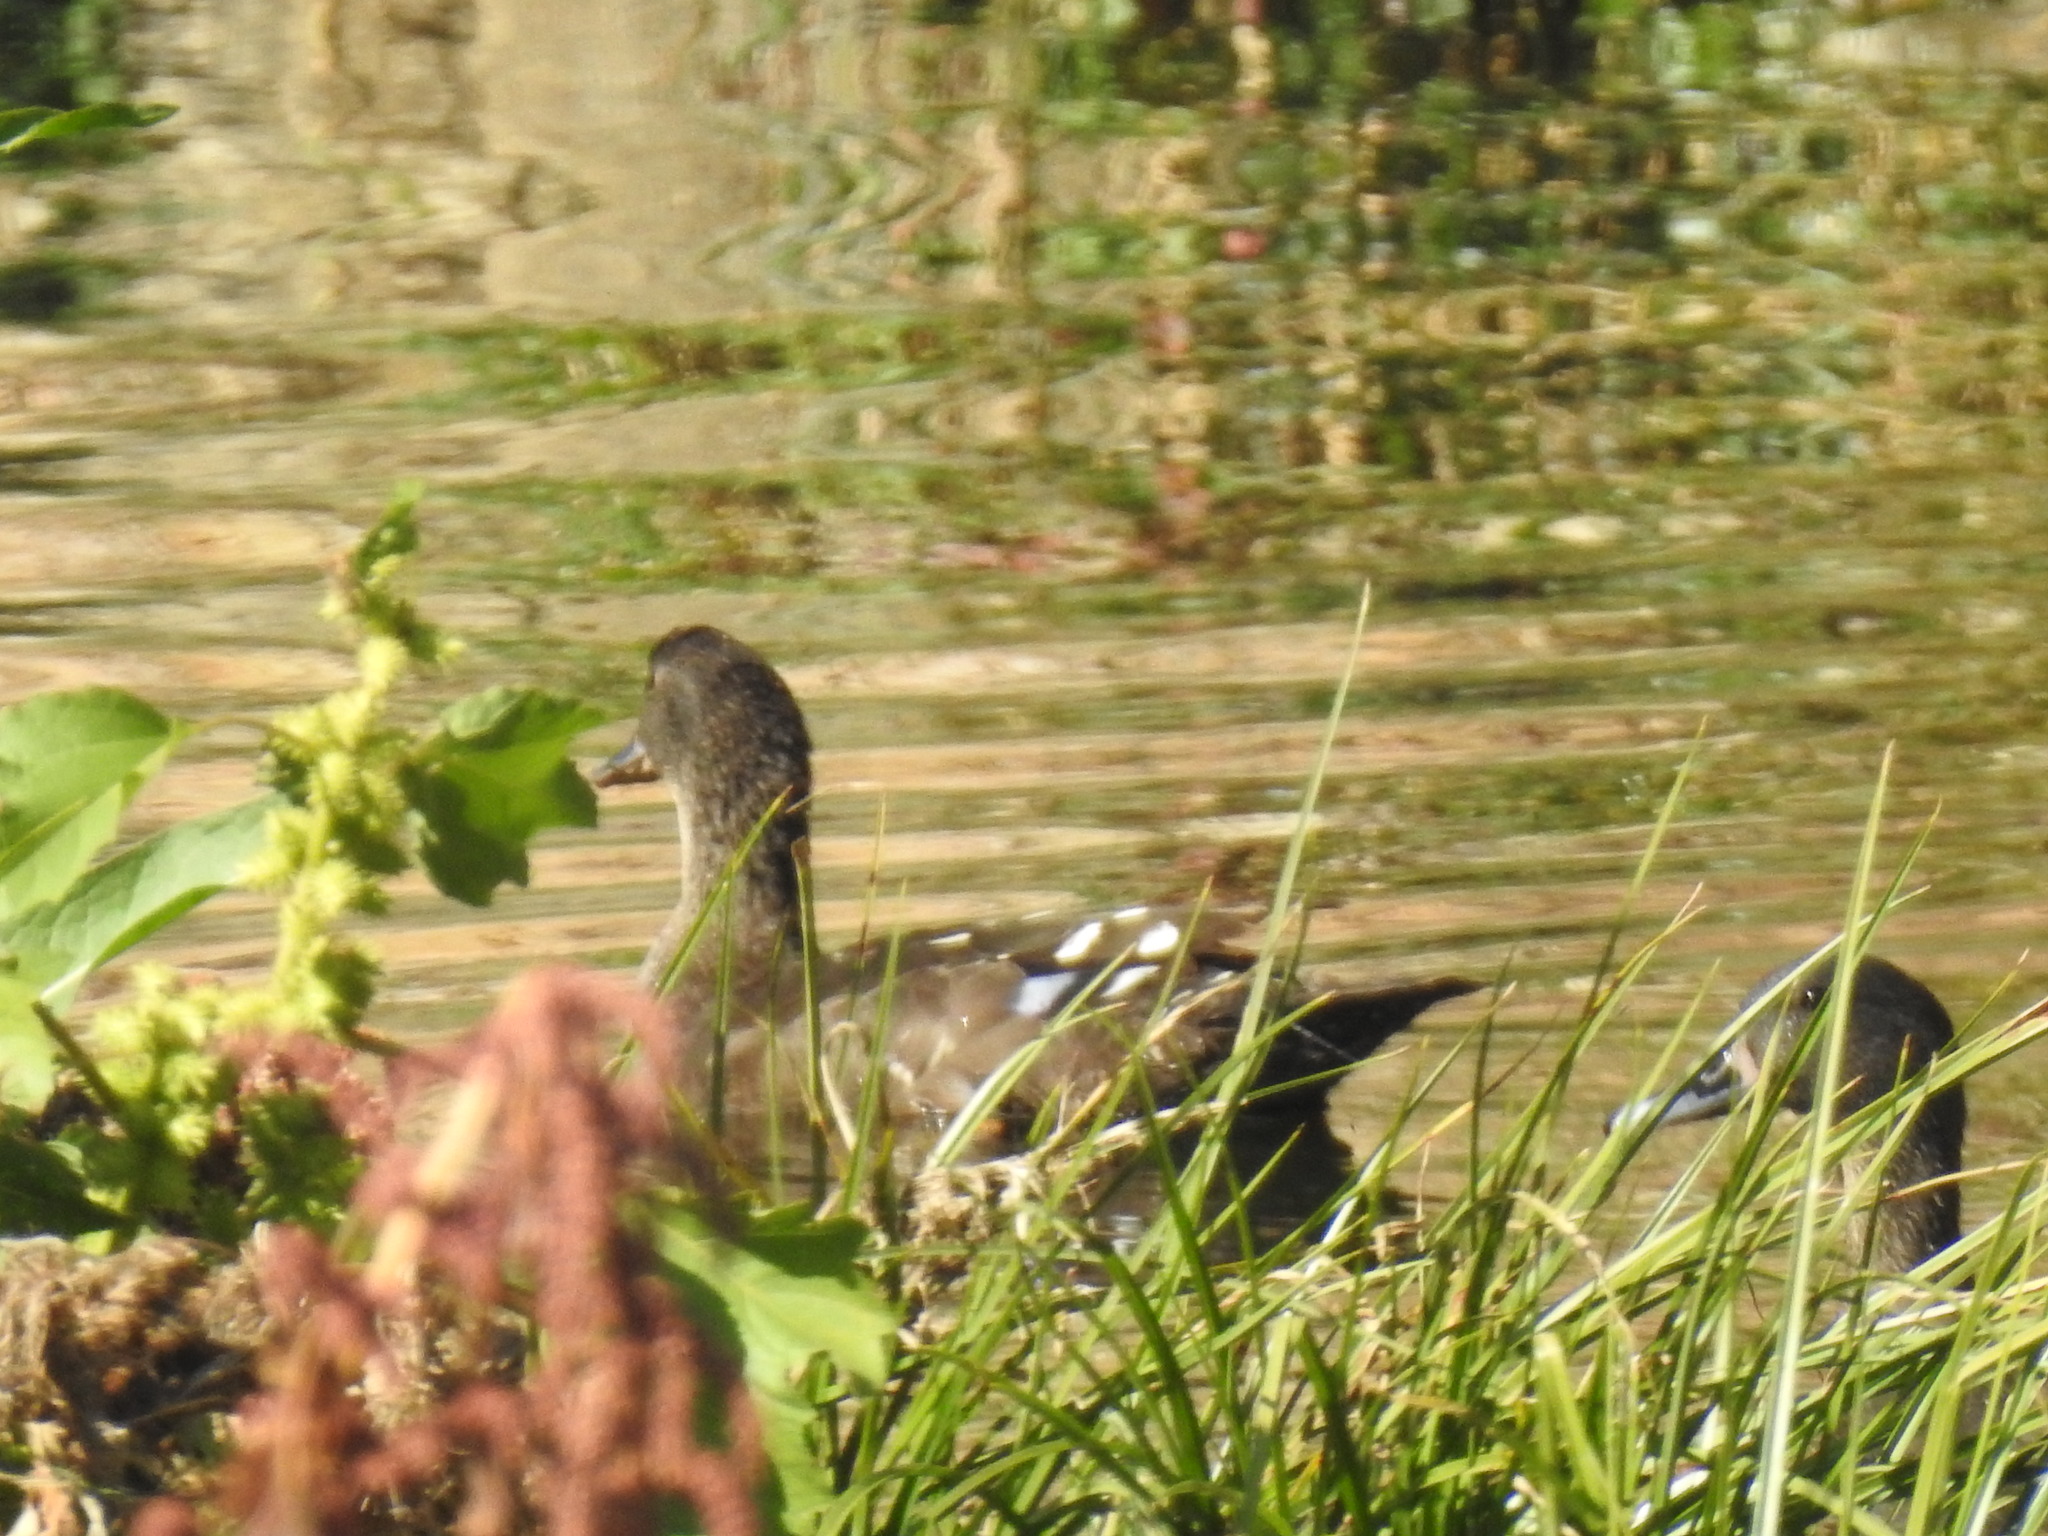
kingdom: Animalia
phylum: Chordata
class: Aves
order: Anseriformes
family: Anatidae
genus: Anas
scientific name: Anas sparsa
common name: African black duck
